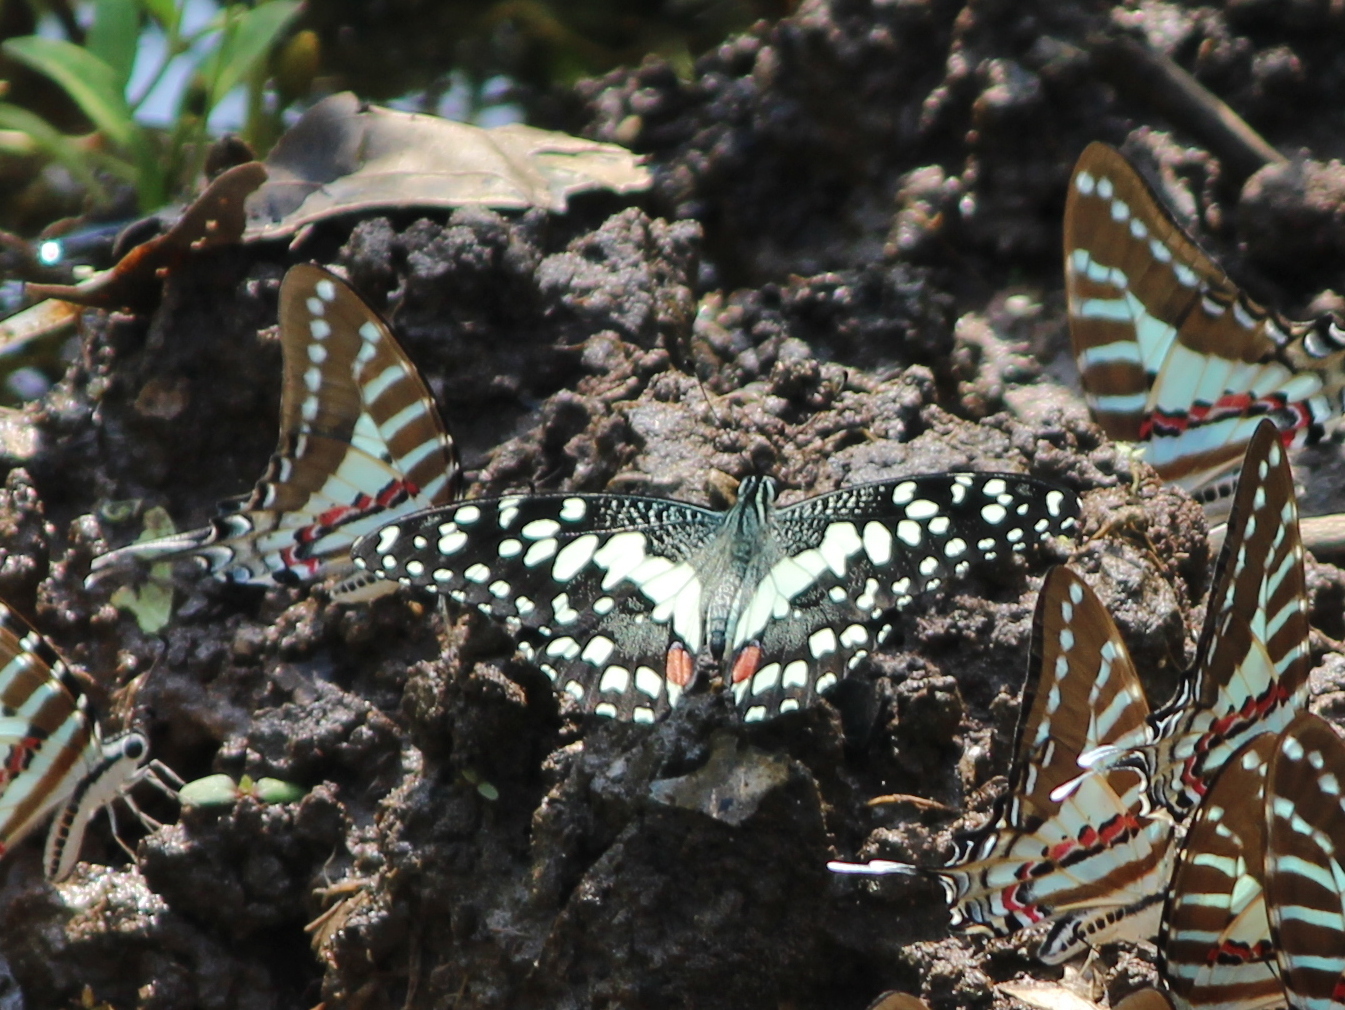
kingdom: Animalia
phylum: Arthropoda
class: Insecta
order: Lepidoptera
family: Papilionidae
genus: Papilio
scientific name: Papilio demoleus
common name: Lime butterfly
